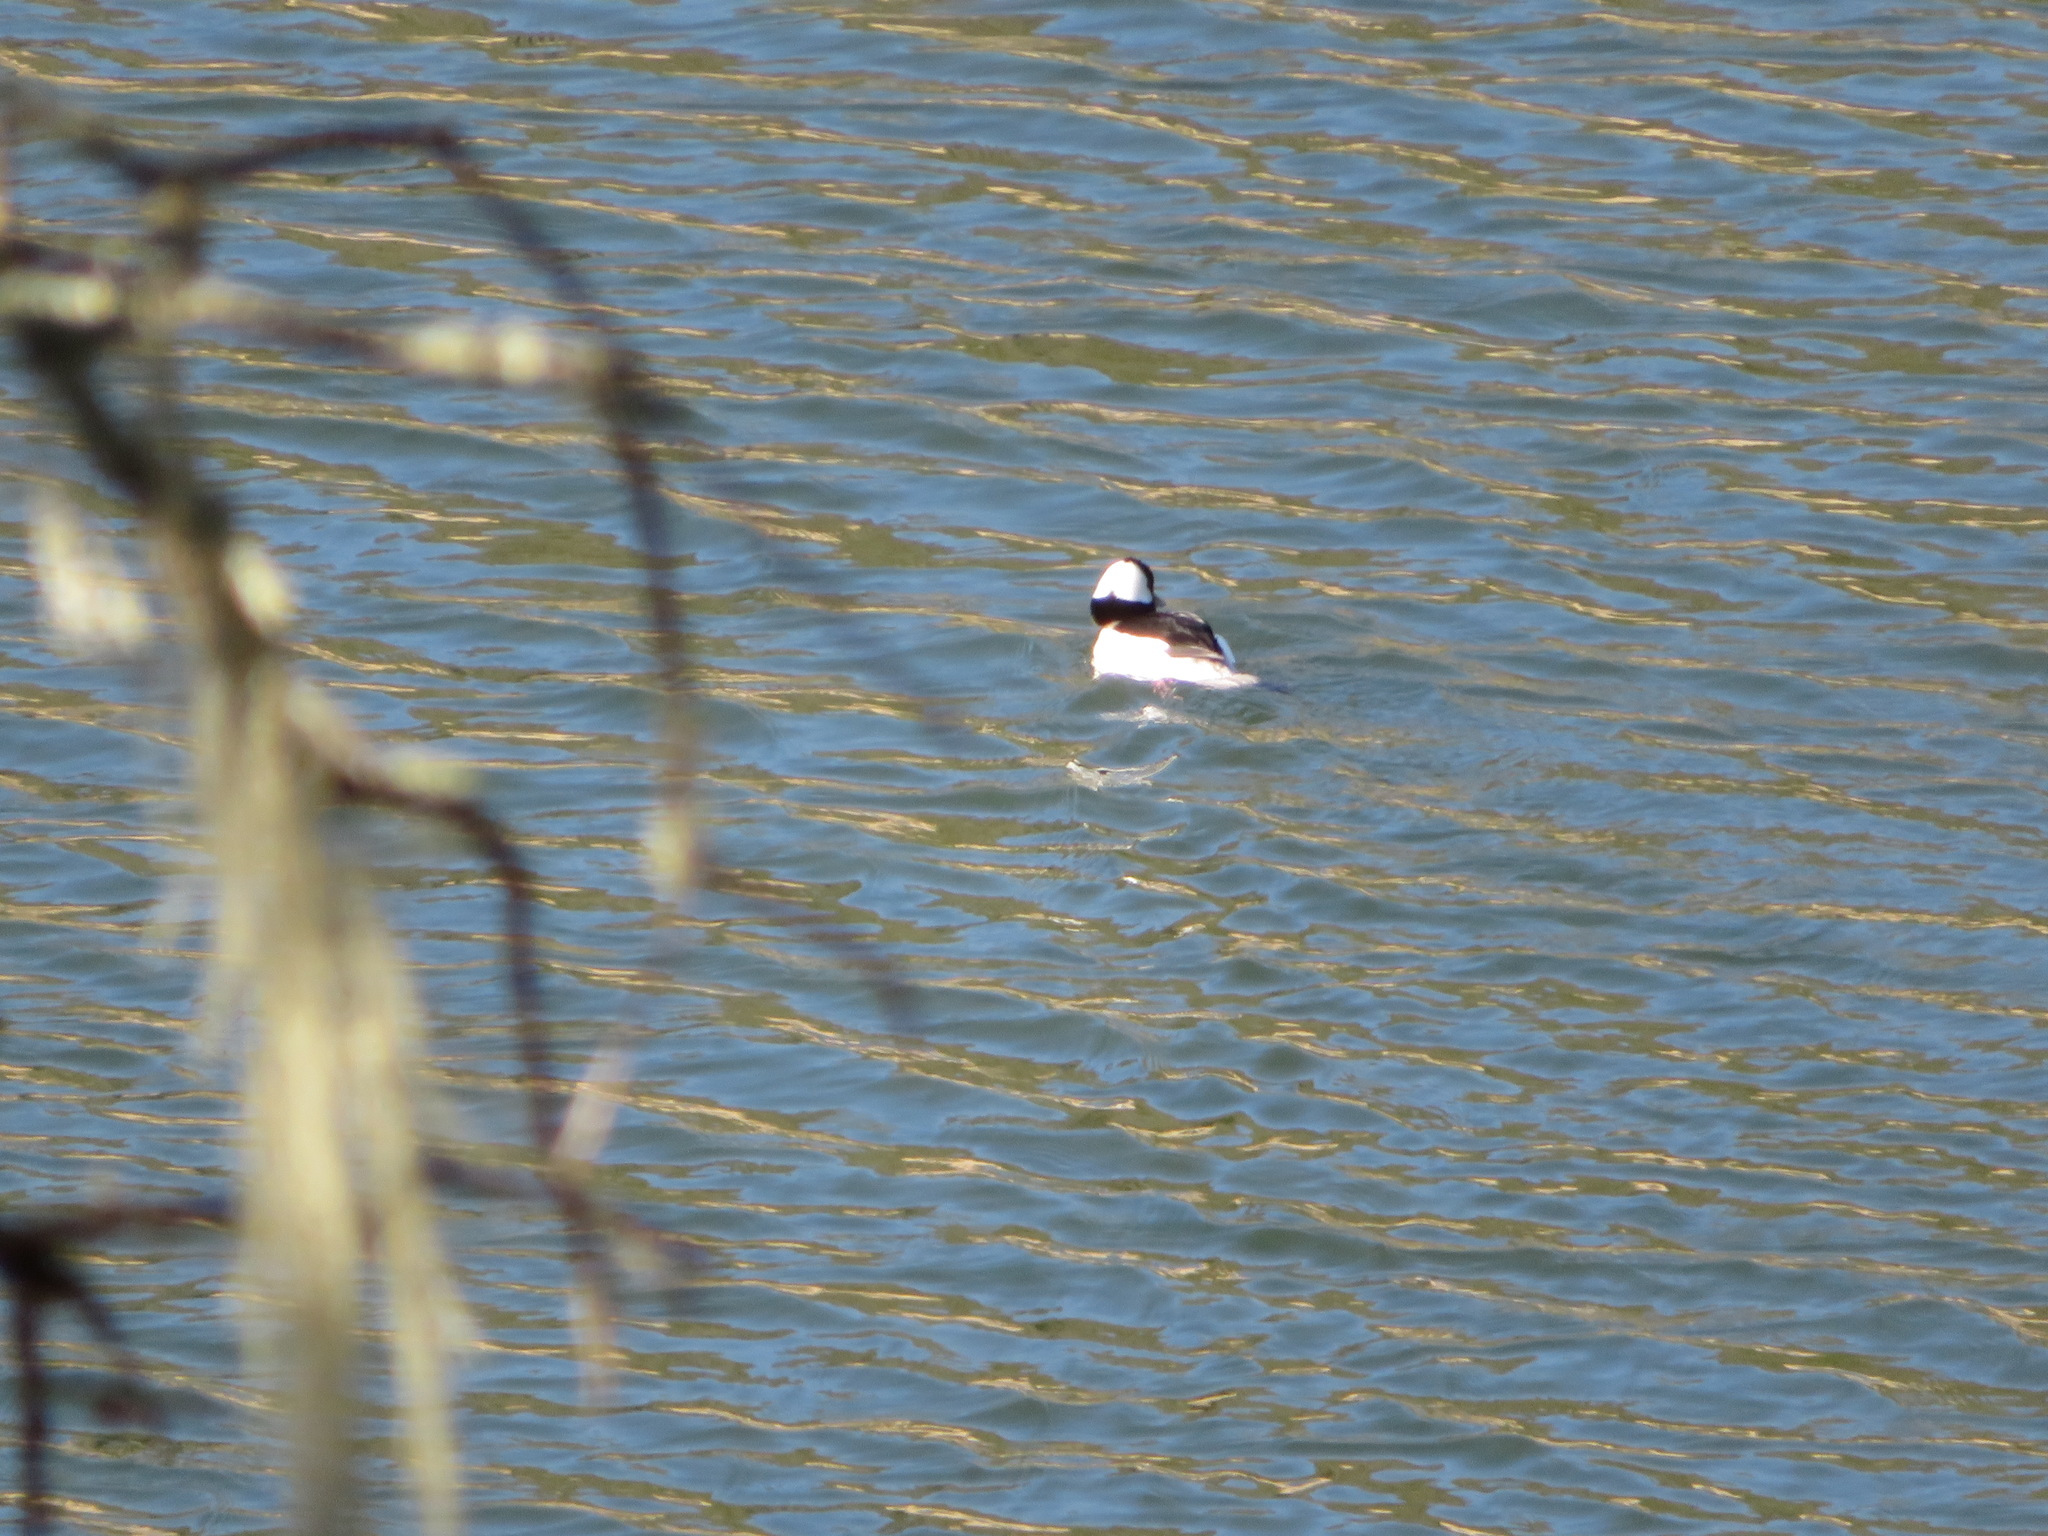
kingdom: Animalia
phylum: Chordata
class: Aves
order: Anseriformes
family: Anatidae
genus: Bucephala
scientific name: Bucephala albeola
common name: Bufflehead
